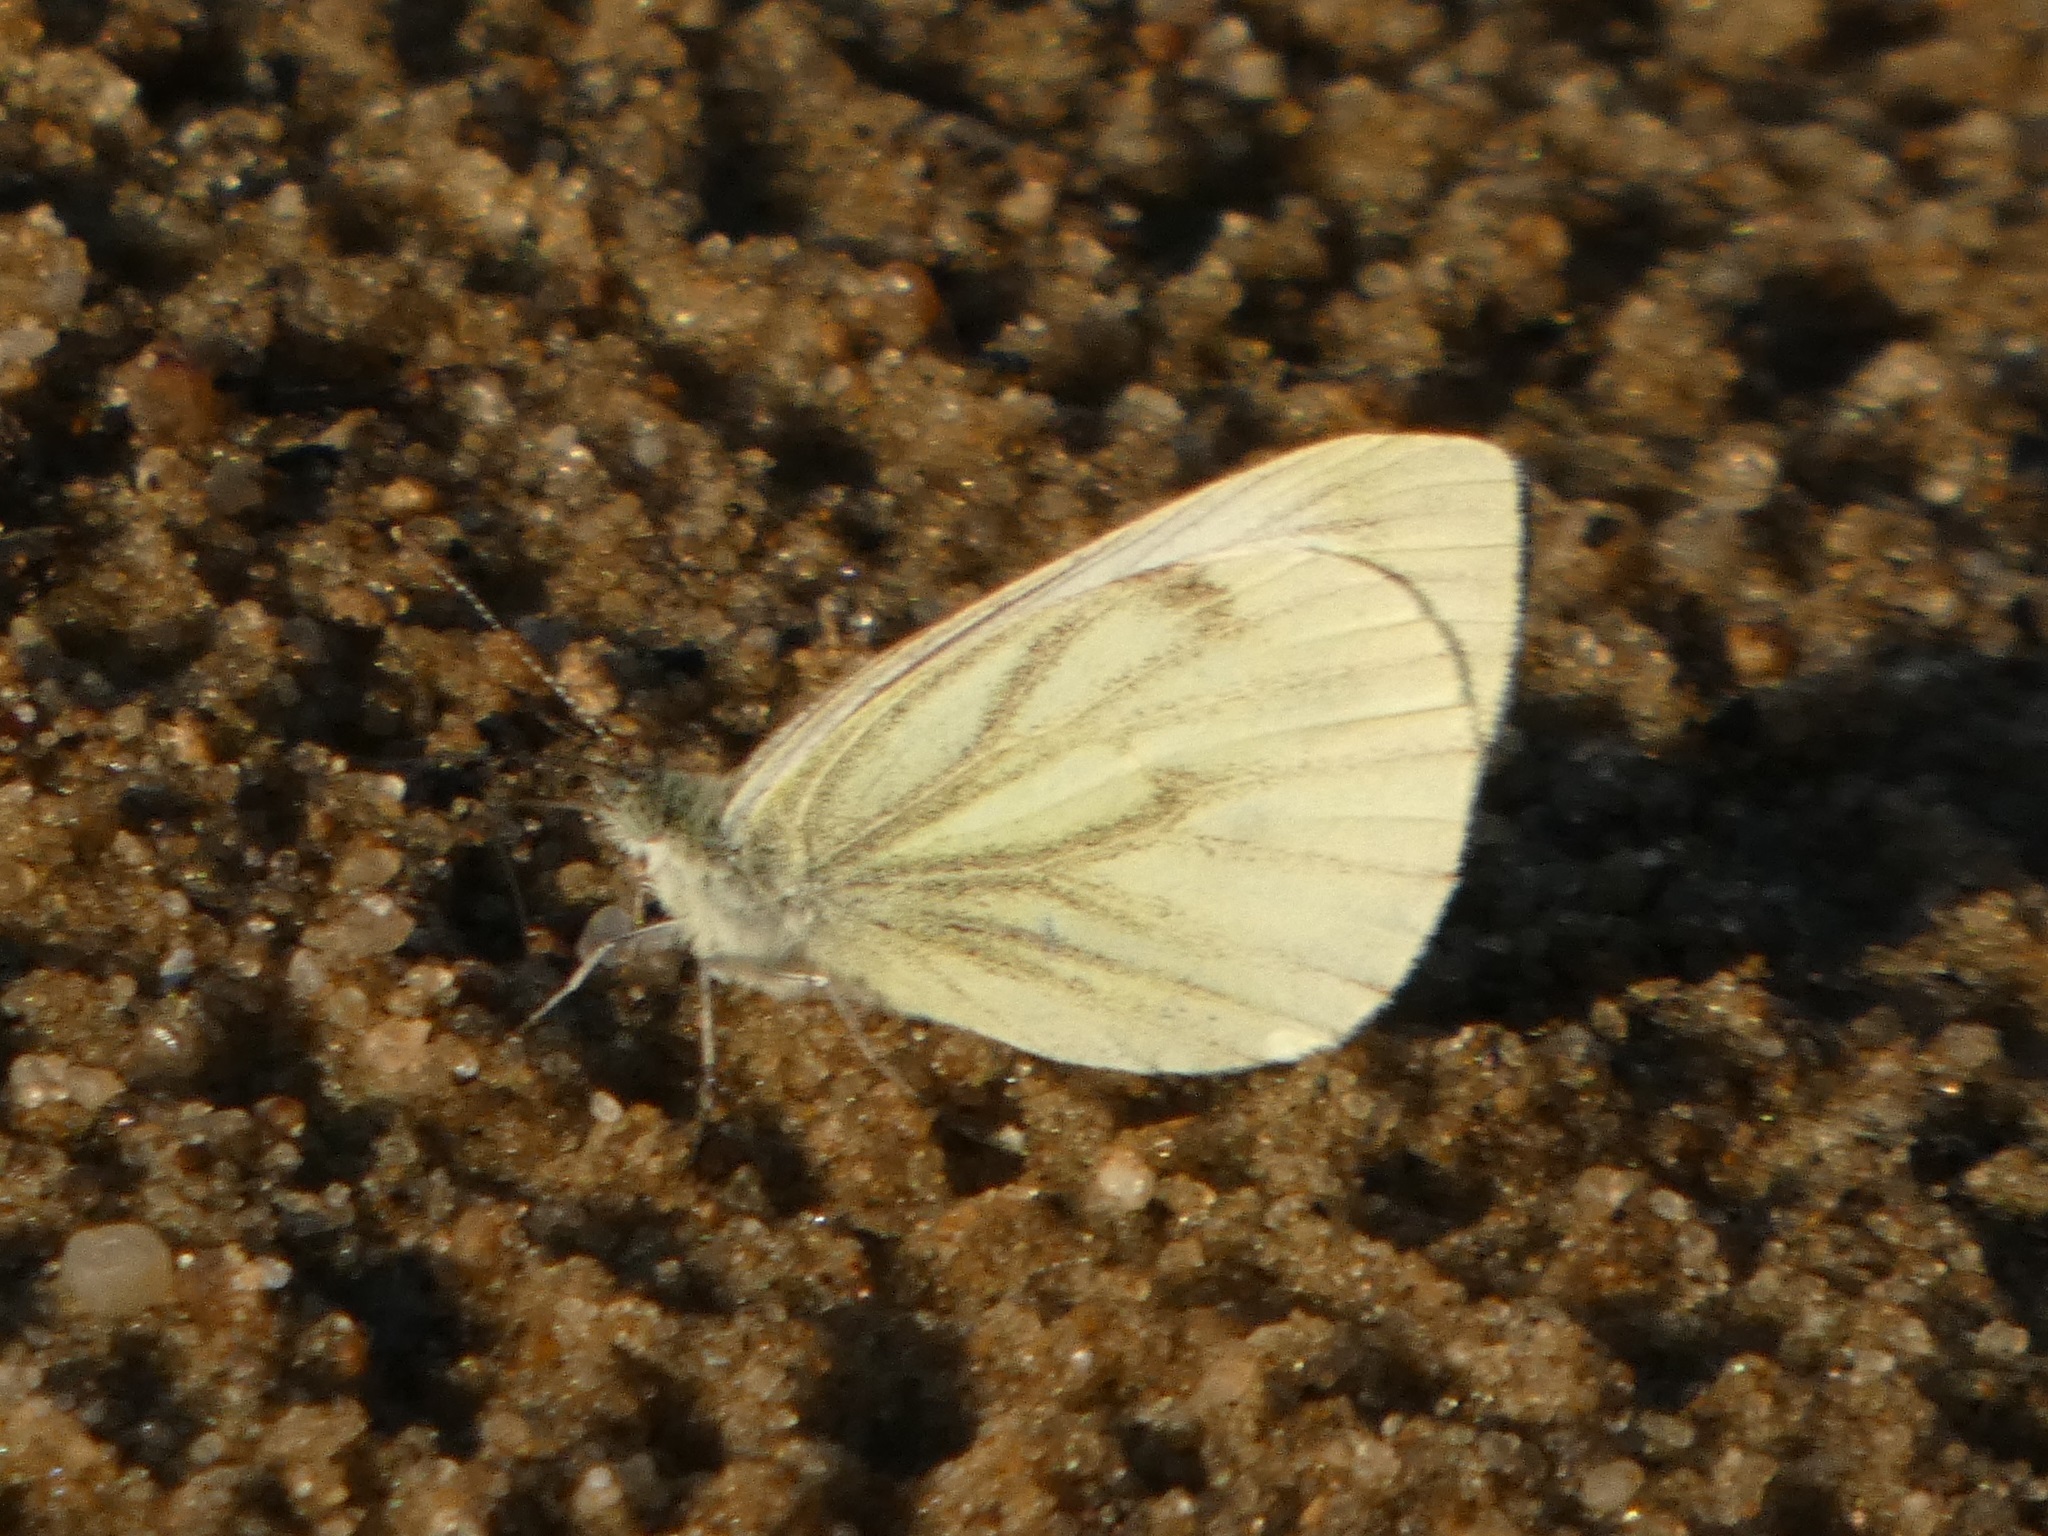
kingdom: Animalia
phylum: Arthropoda
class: Insecta
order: Lepidoptera
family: Pieridae
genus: Pieris
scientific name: Pieris napi
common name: Green-veined white
